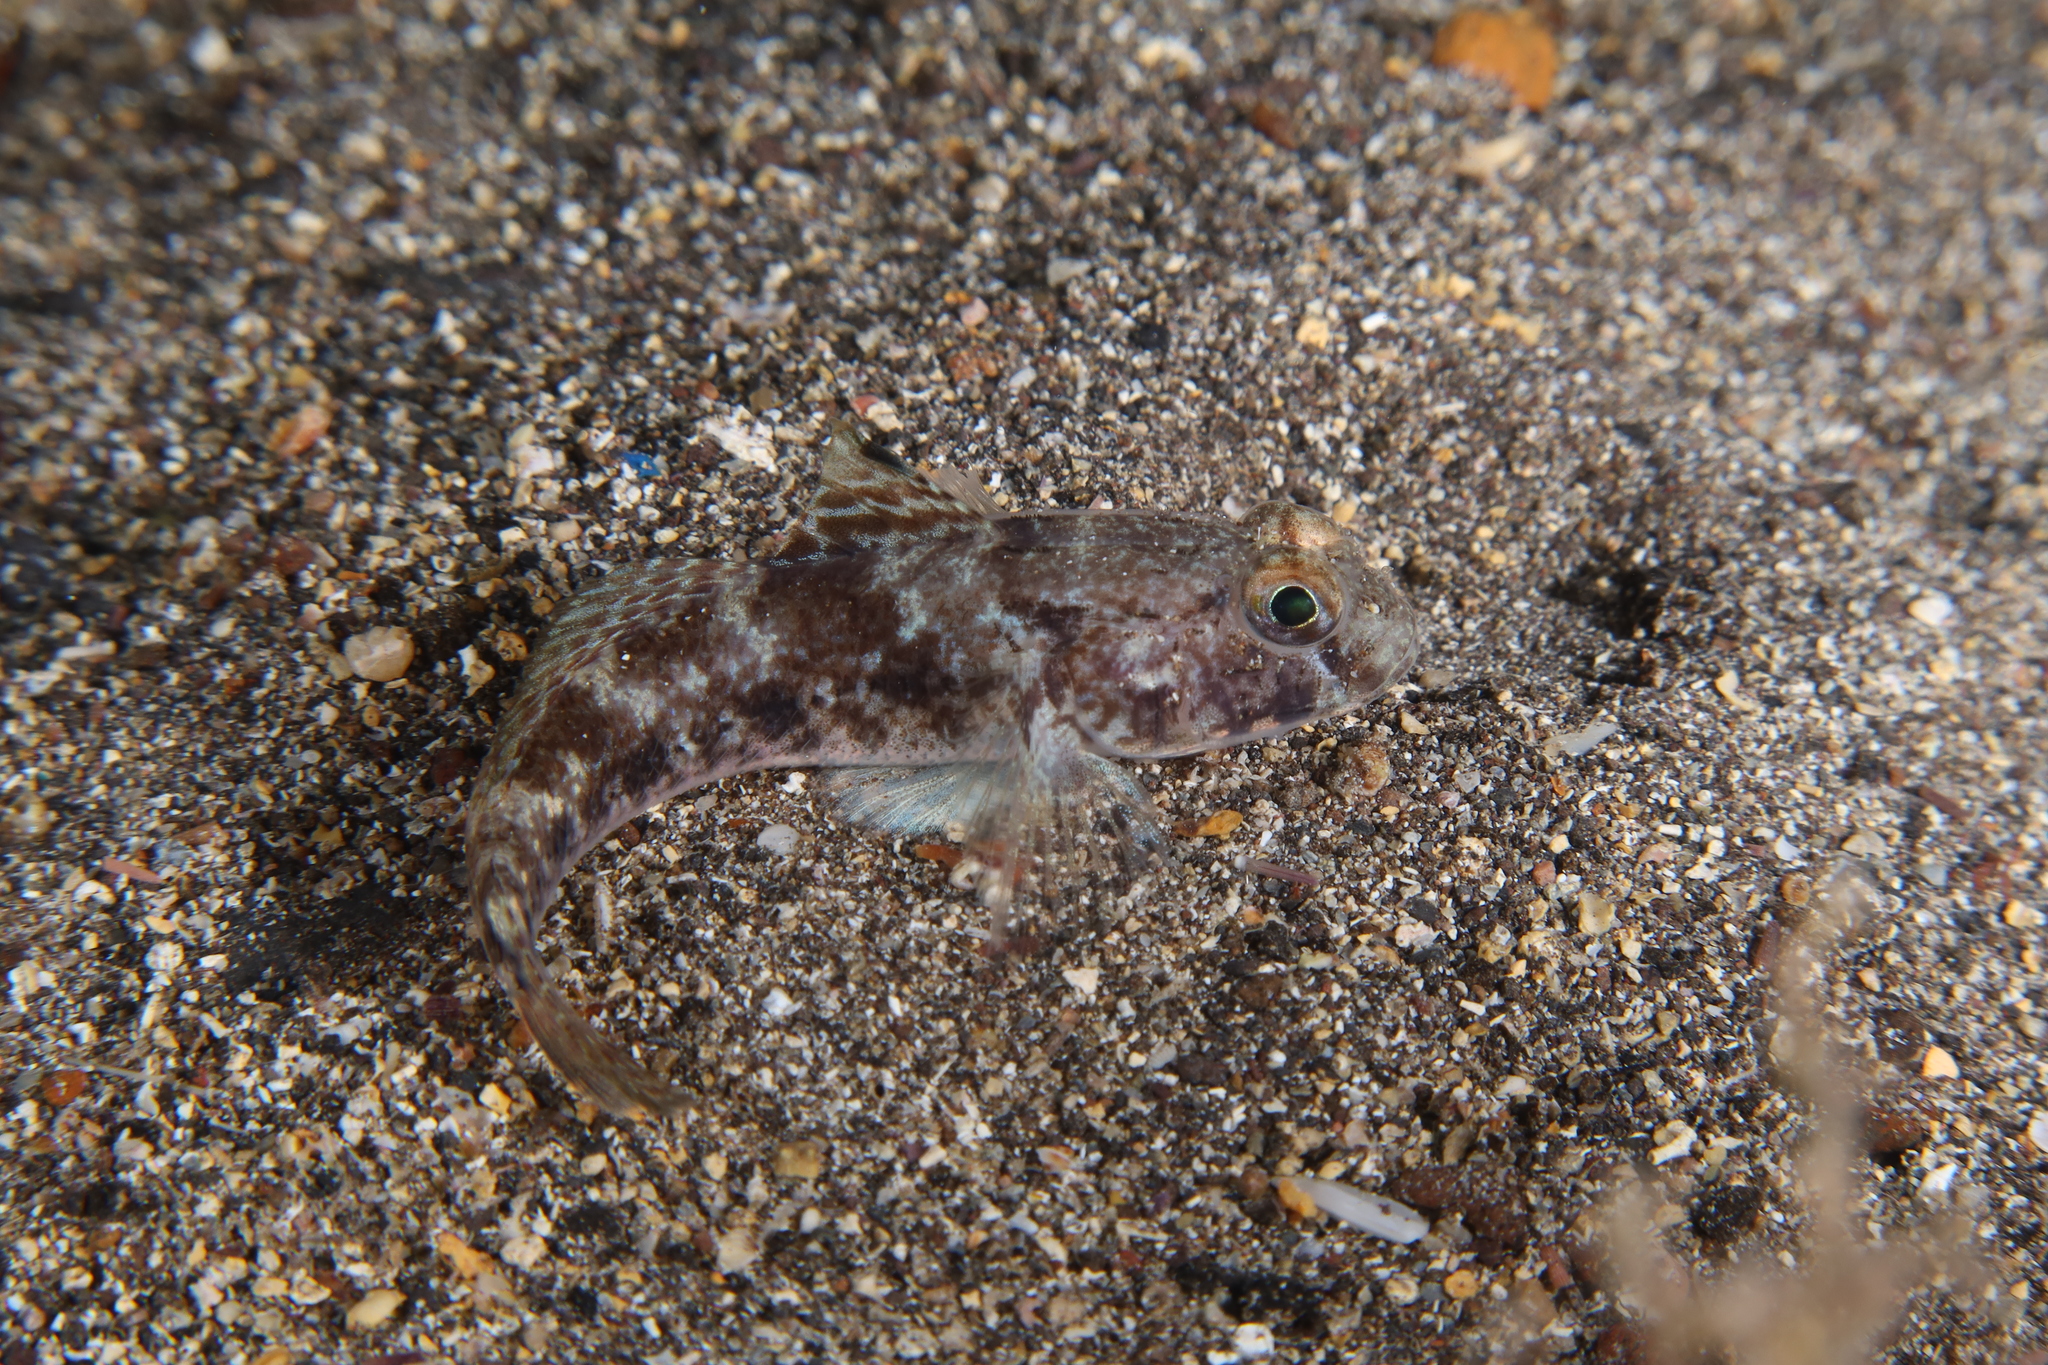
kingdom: Animalia
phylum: Chordata
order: Perciformes
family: Gobiidae
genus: Gobius
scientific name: Gobius niger
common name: Black goby
